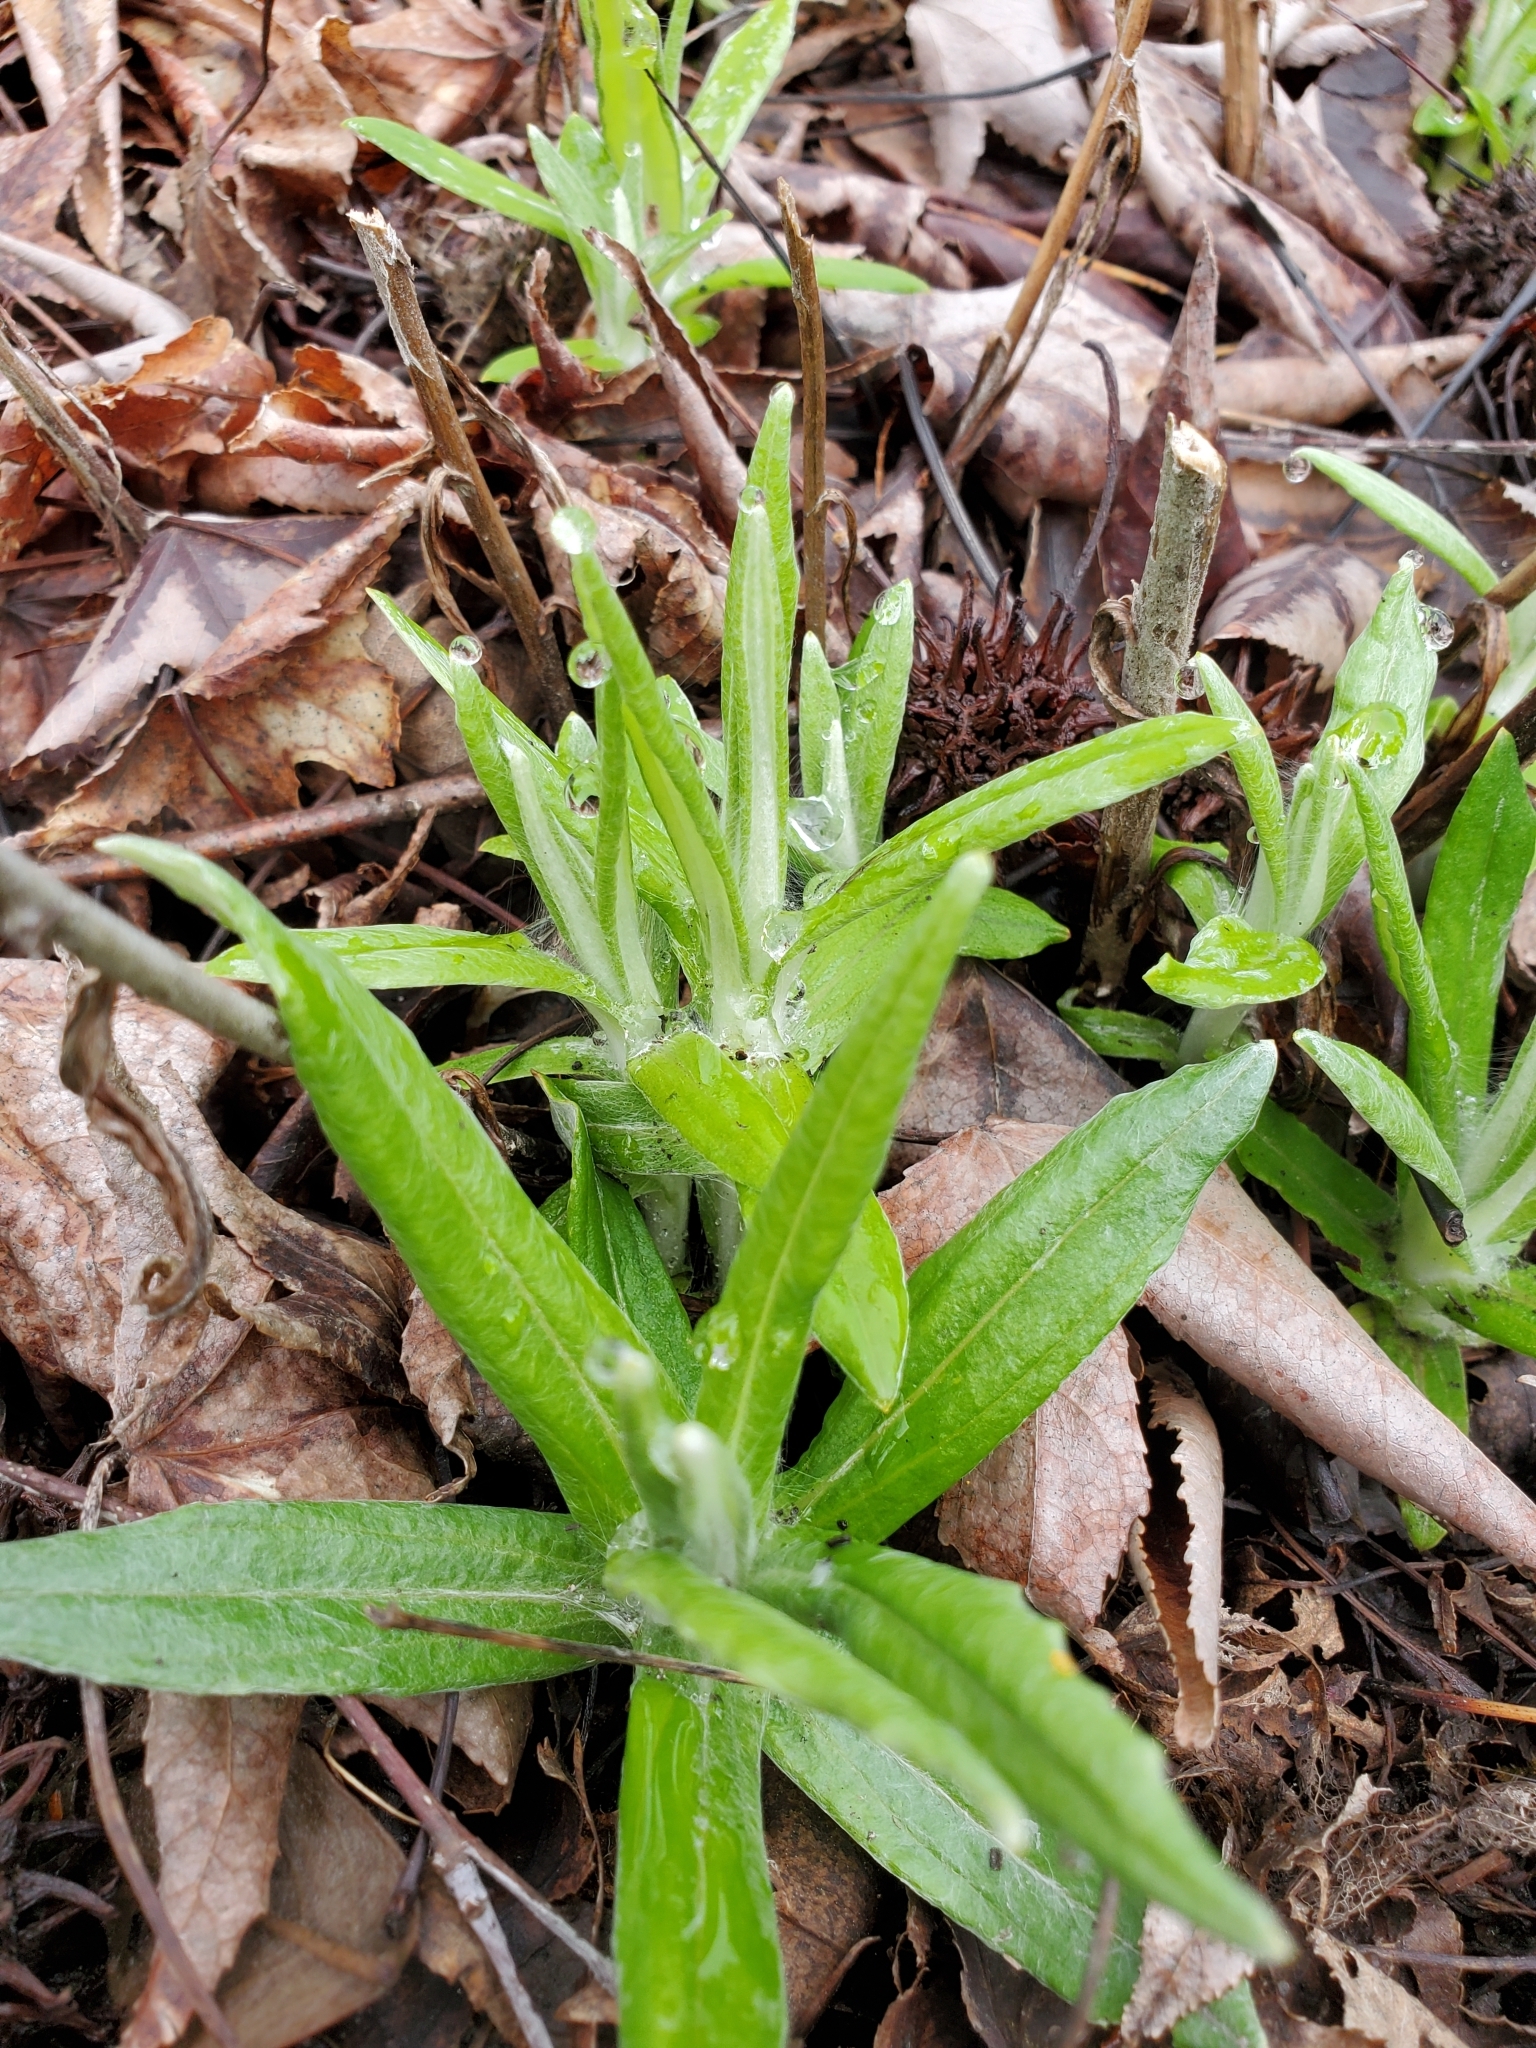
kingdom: Plantae
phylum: Tracheophyta
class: Magnoliopsida
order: Asterales
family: Asteraceae
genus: Anaphalis
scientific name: Anaphalis margaritacea
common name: Pearly everlasting
